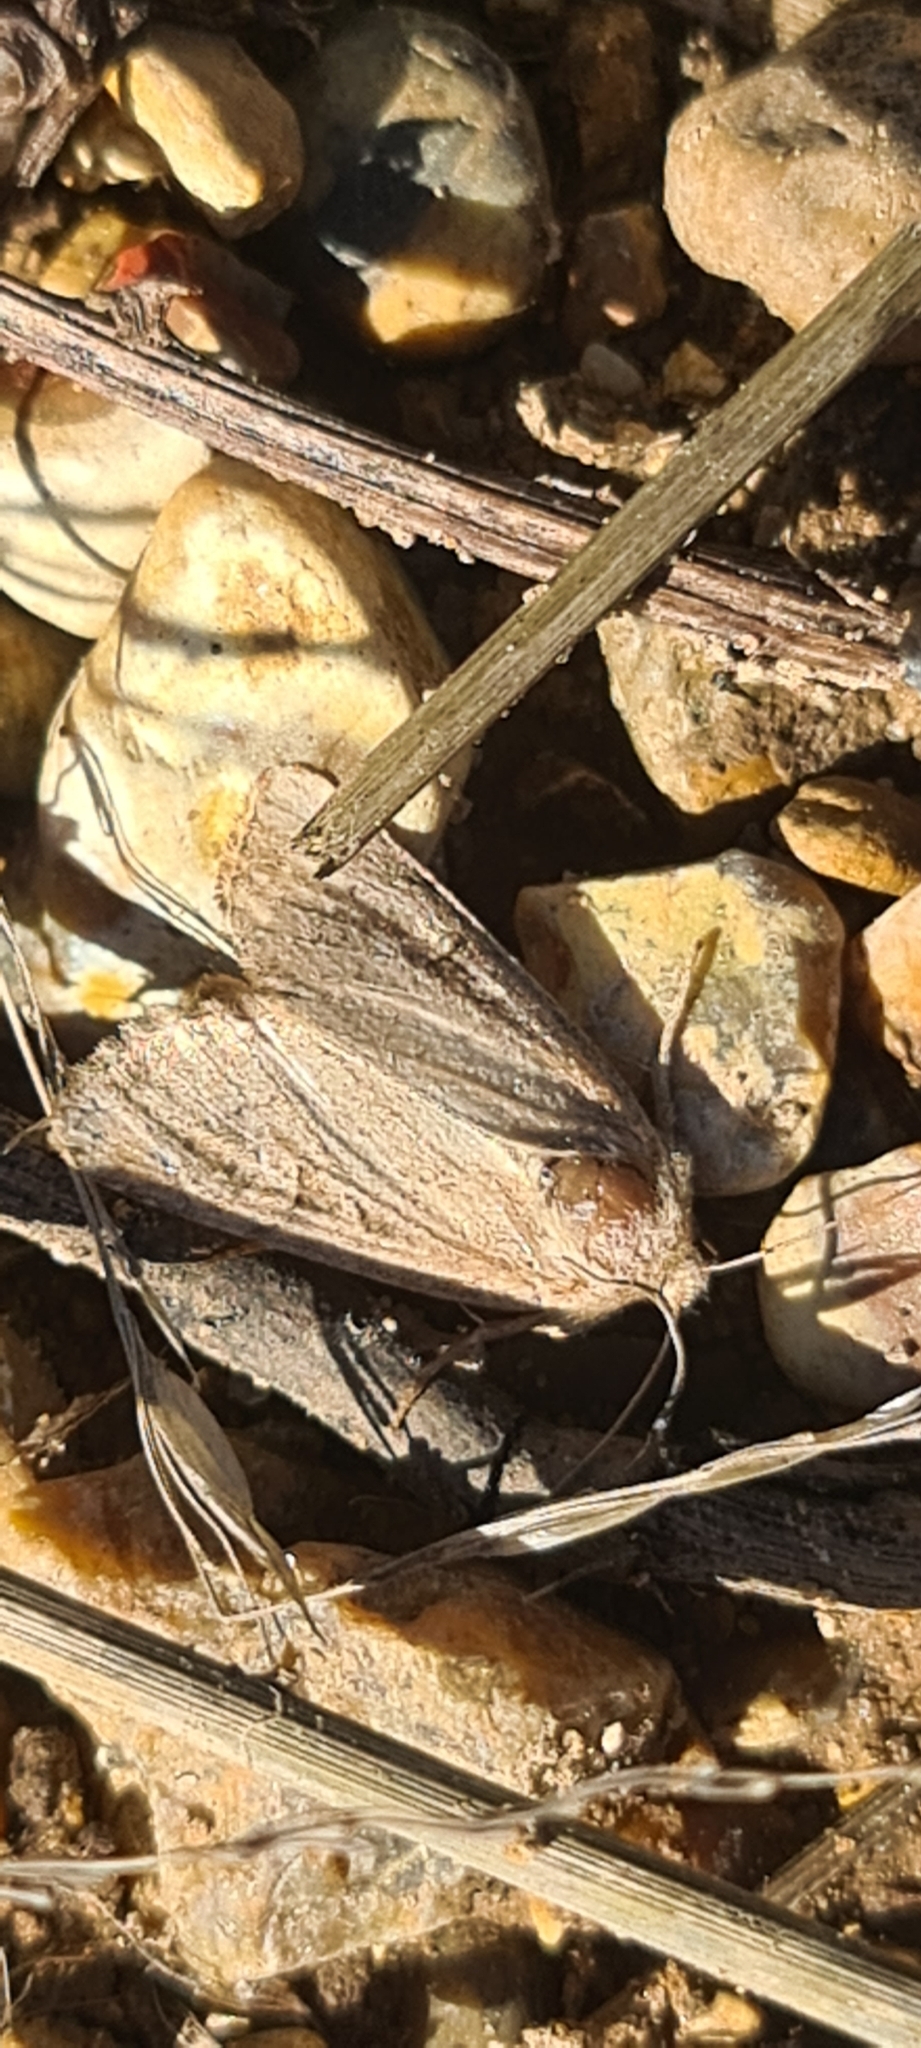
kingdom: Animalia
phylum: Arthropoda
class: Insecta
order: Lepidoptera
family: Noctuidae
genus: Luperina
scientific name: Luperina testacea
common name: Flounced rustic
